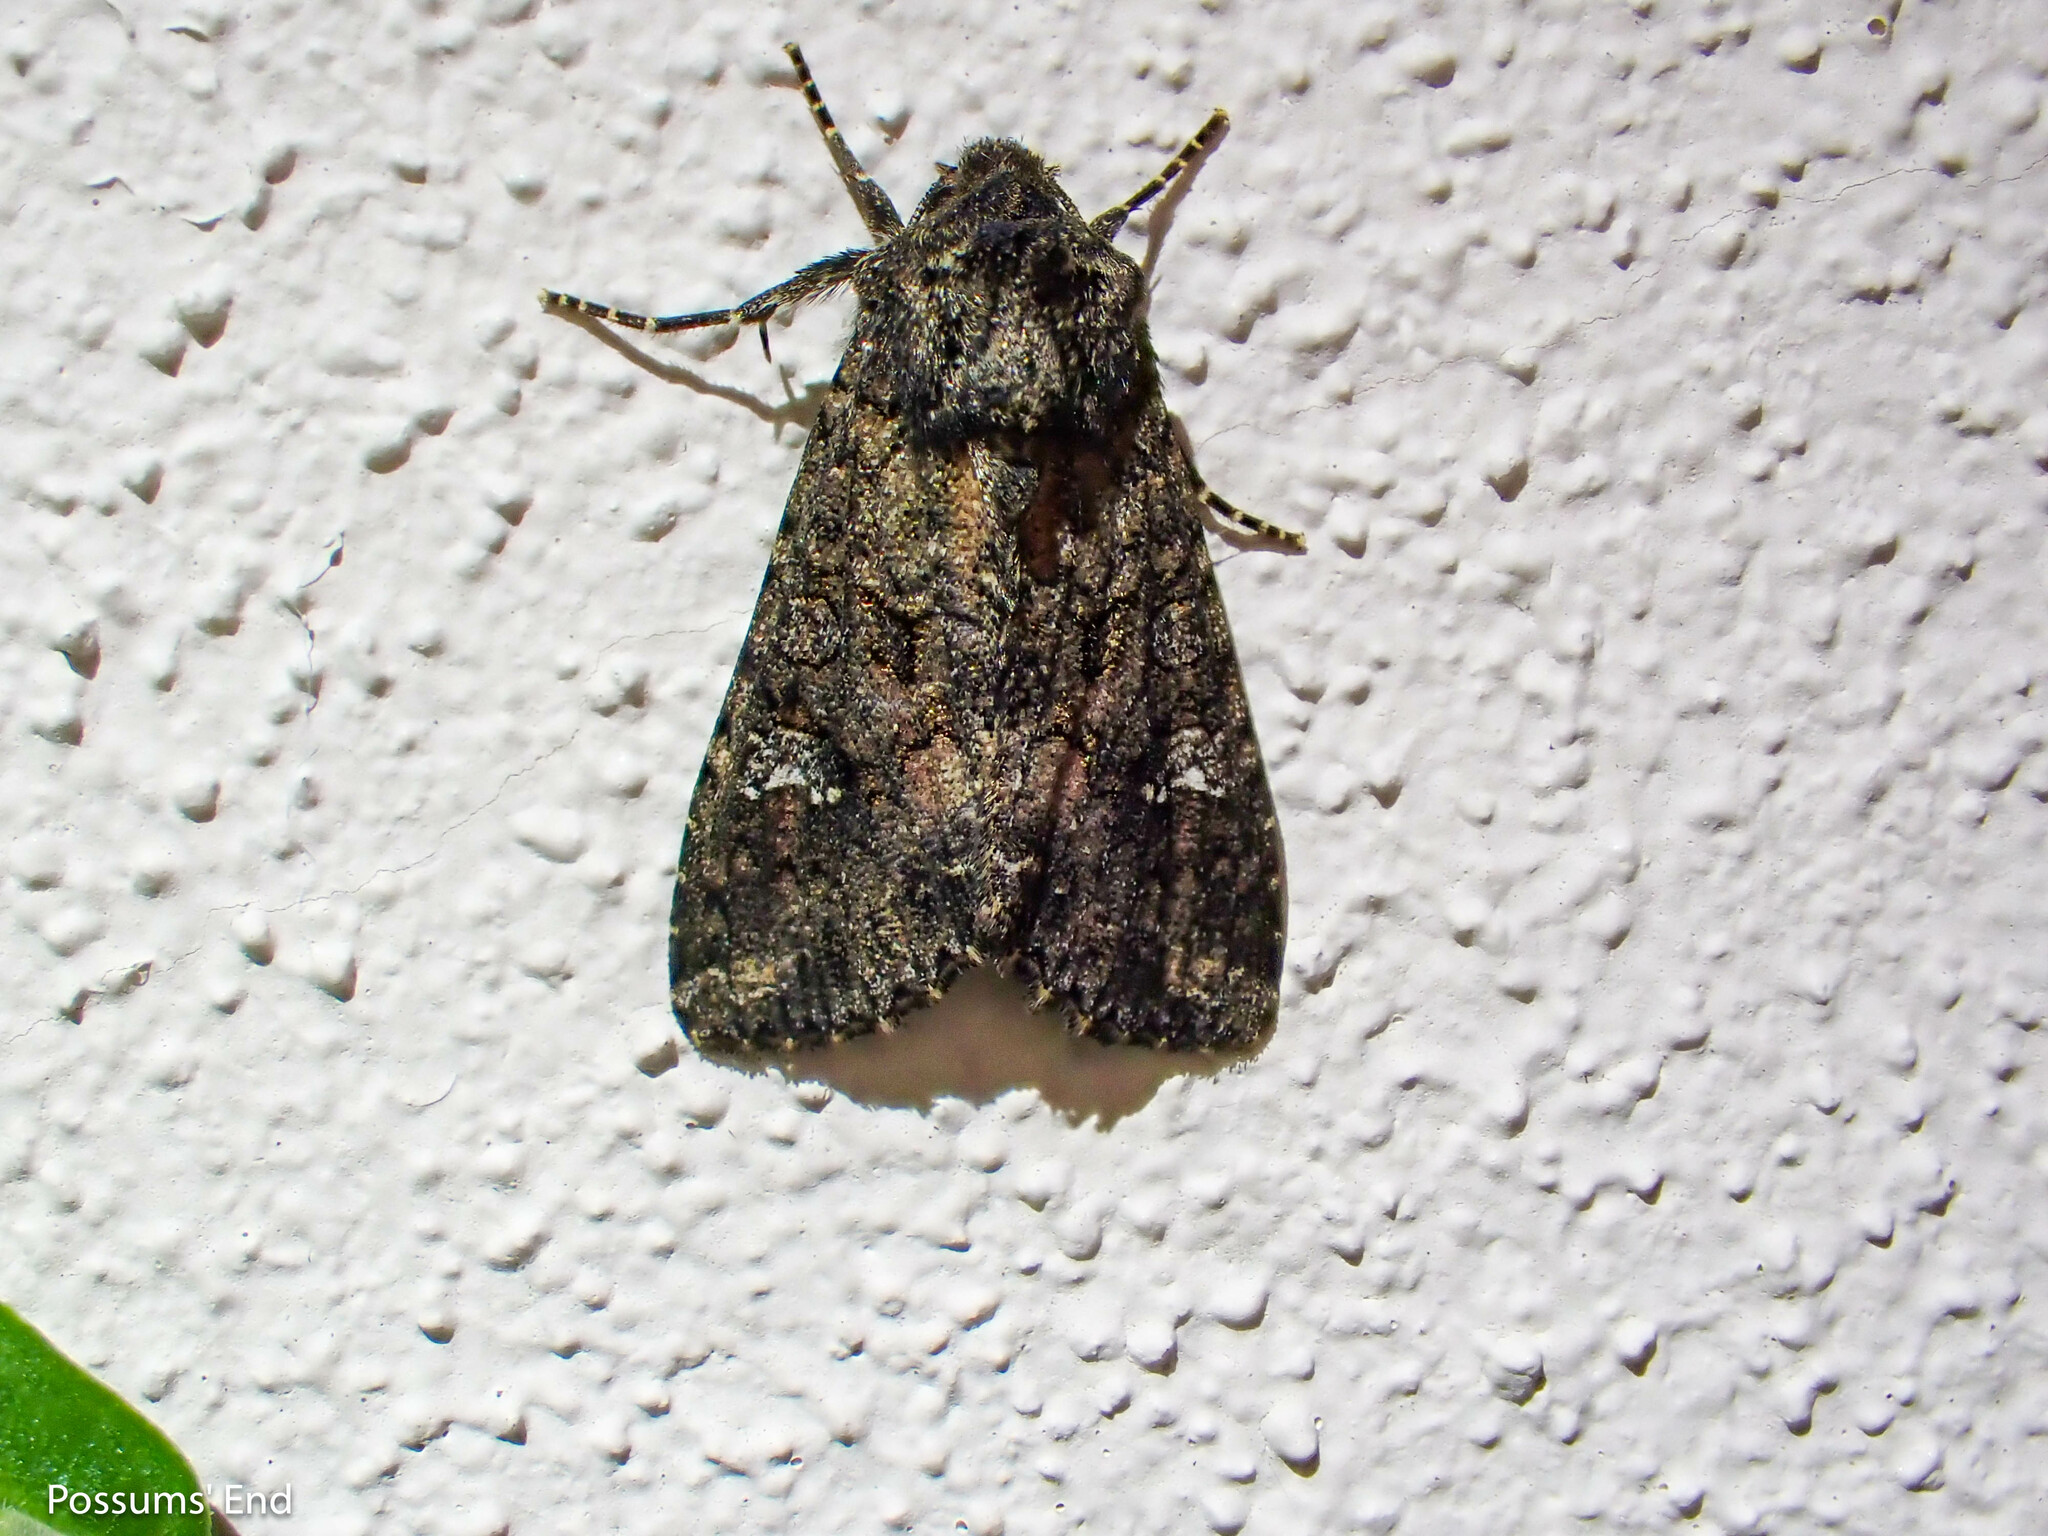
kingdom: Animalia
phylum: Arthropoda
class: Insecta
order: Lepidoptera
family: Noctuidae
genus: Mamestra
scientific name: Mamestra brassicae
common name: Cabbage moth
